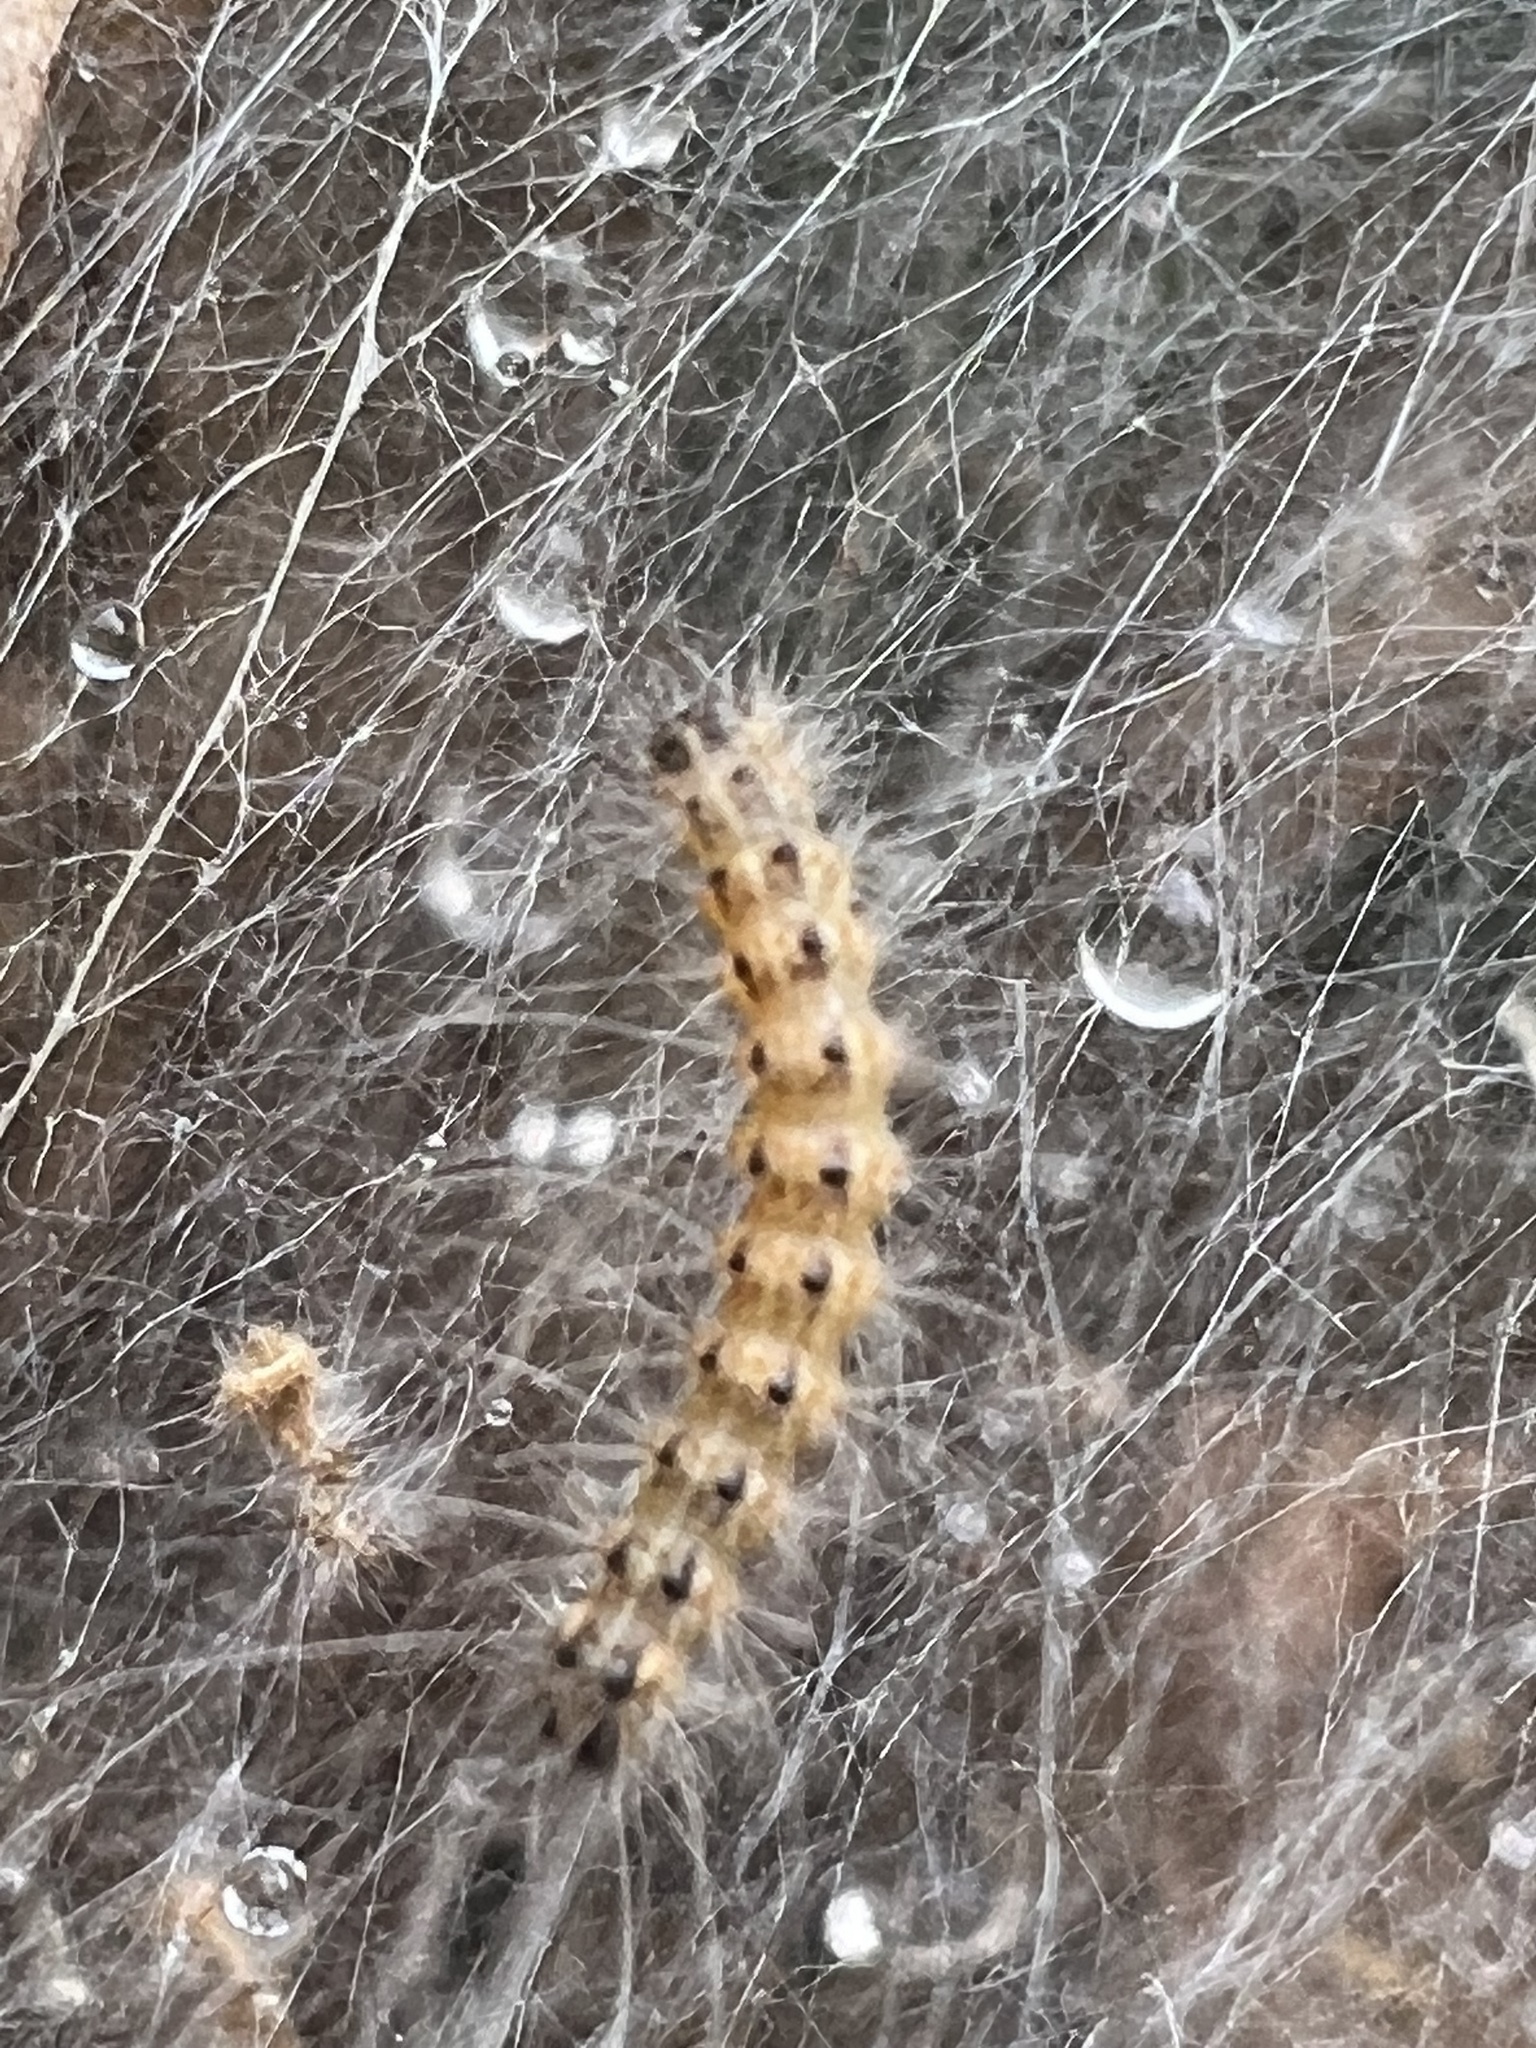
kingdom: Animalia
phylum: Arthropoda
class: Insecta
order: Lepidoptera
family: Erebidae
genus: Hyphantria
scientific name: Hyphantria cunea
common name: American white moth
